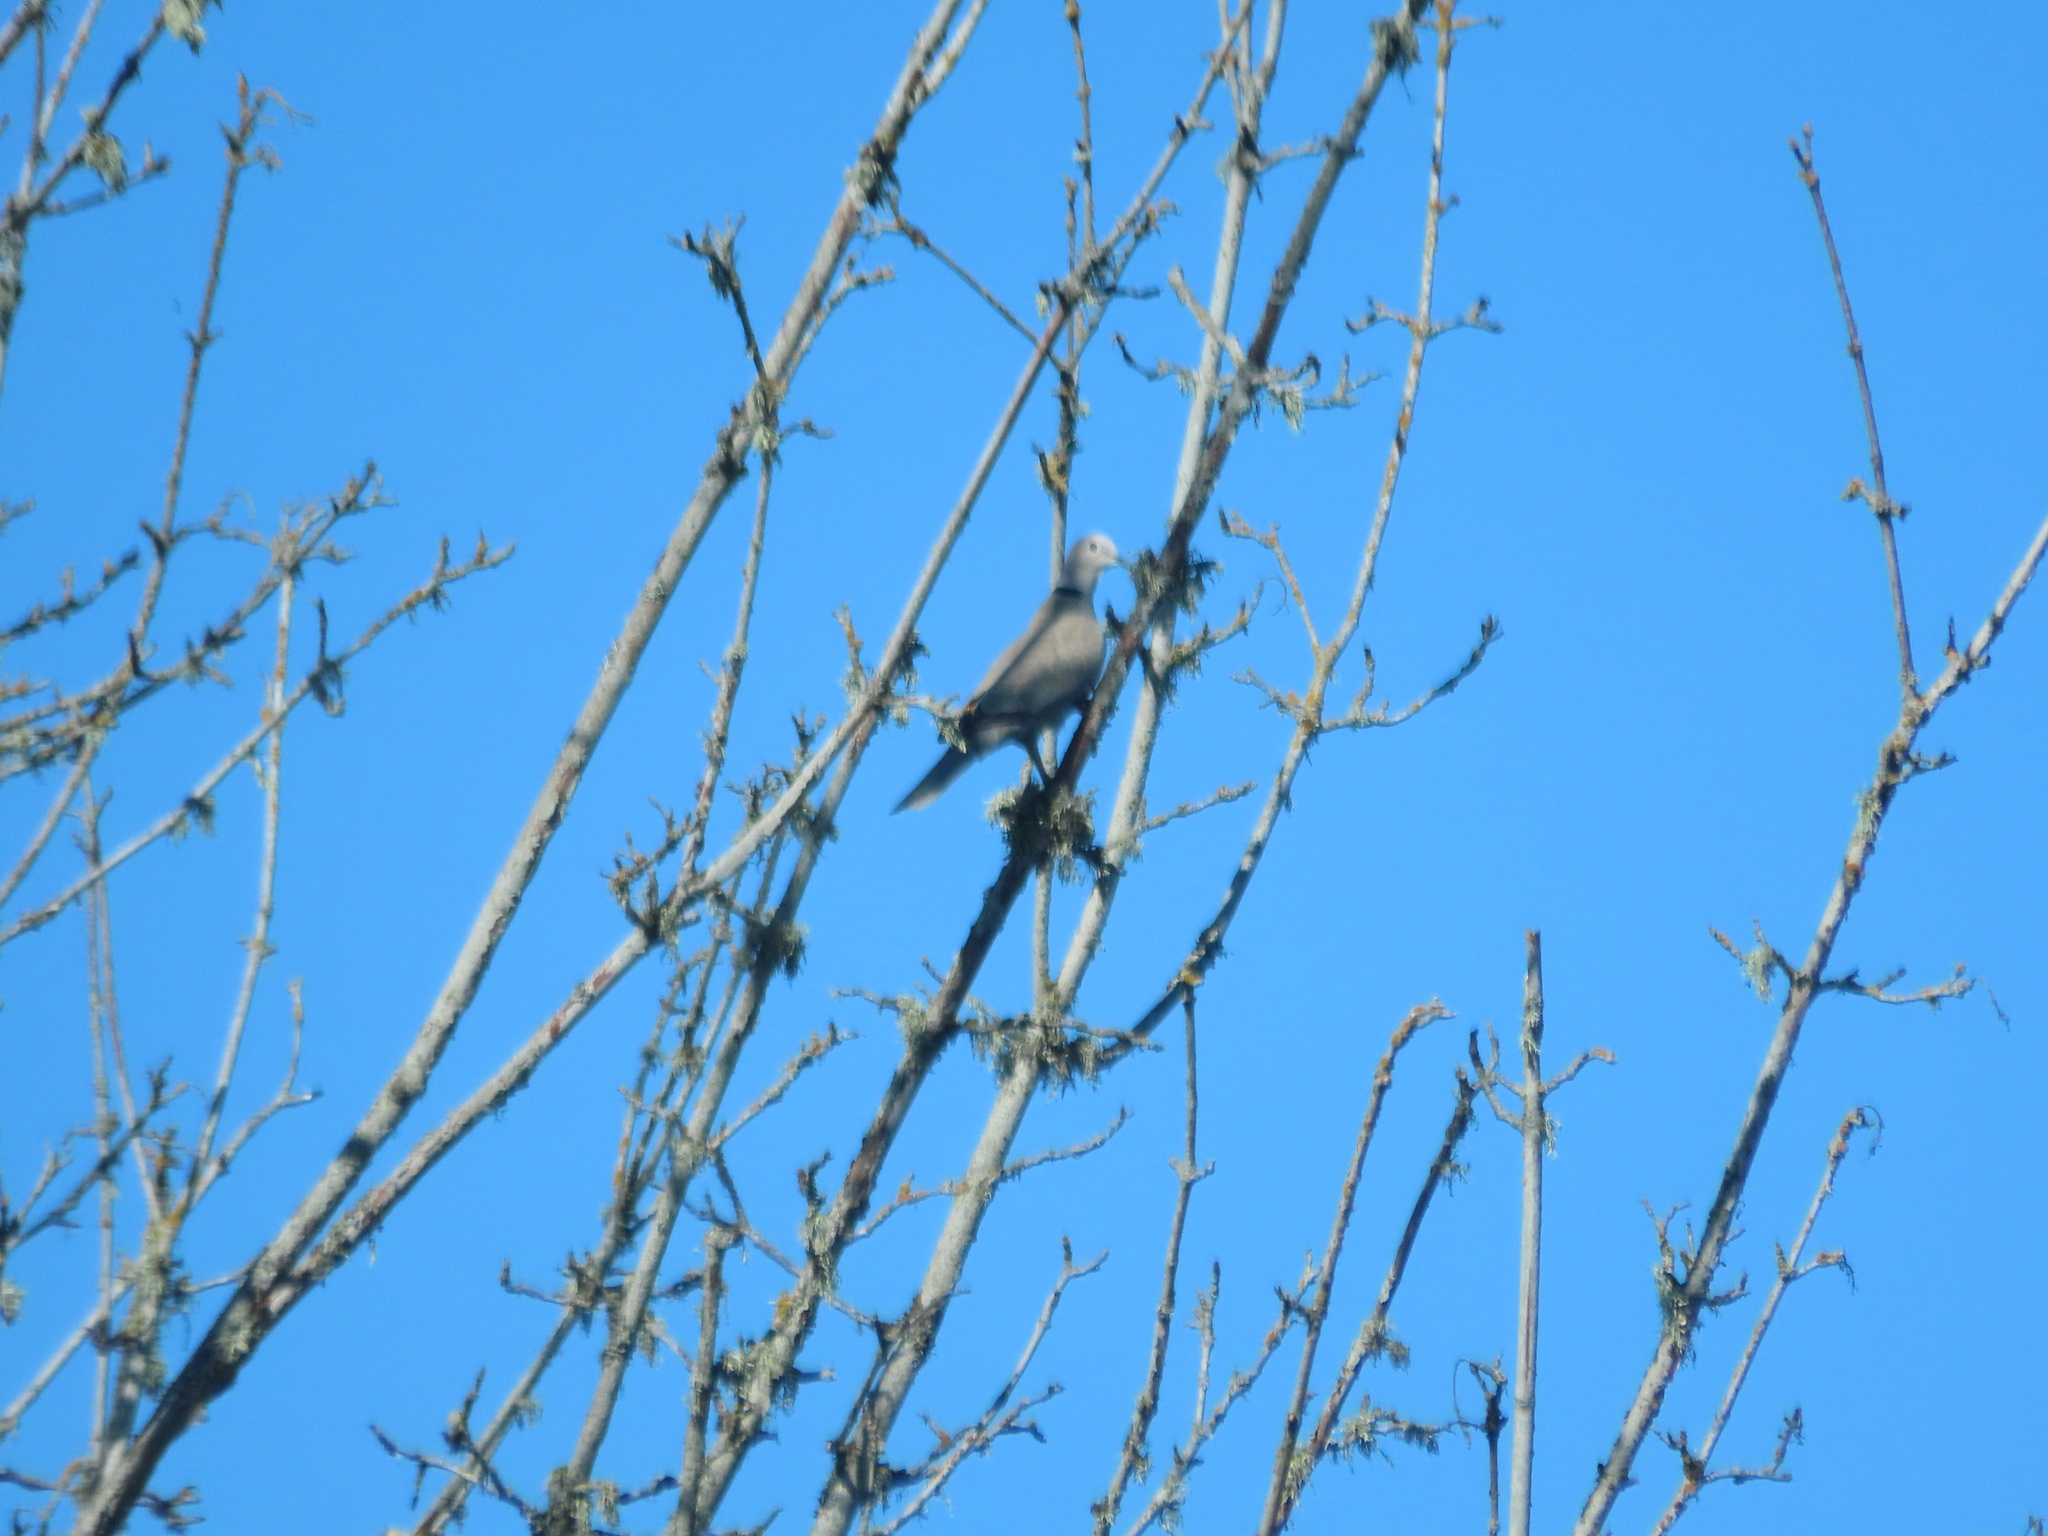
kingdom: Animalia
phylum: Chordata
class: Aves
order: Columbiformes
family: Columbidae
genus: Streptopelia
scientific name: Streptopelia decaocto
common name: Eurasian collared dove
